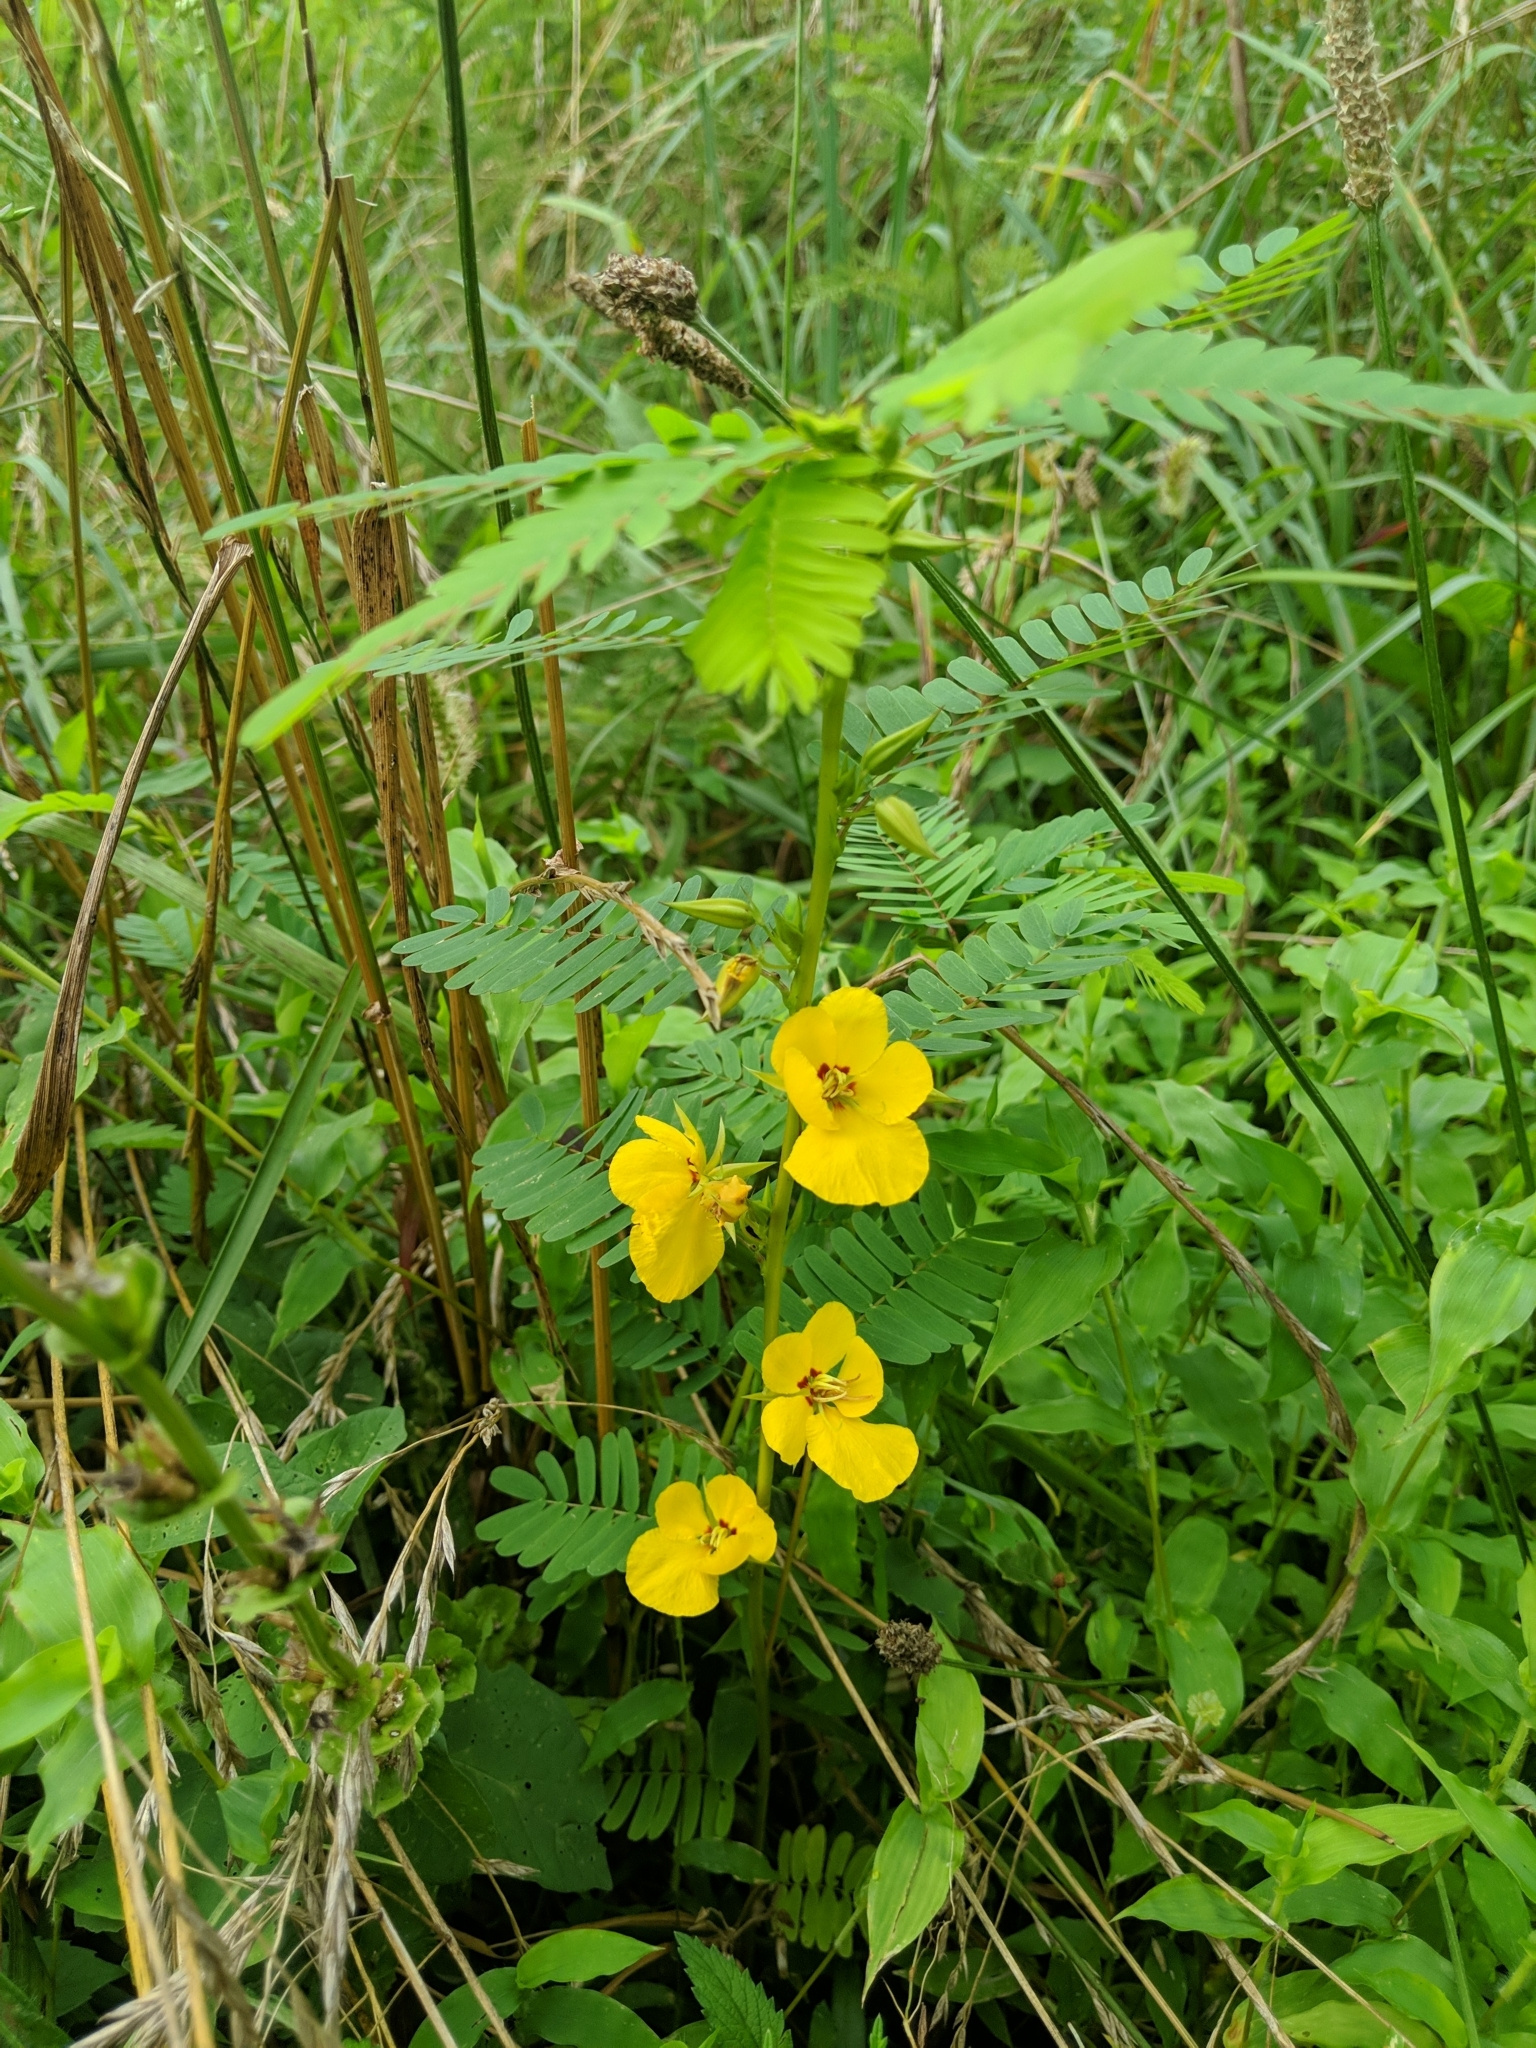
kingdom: Plantae
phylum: Tracheophyta
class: Magnoliopsida
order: Fabales
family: Fabaceae
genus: Chamaecrista
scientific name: Chamaecrista fasciculata
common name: Golden cassia
